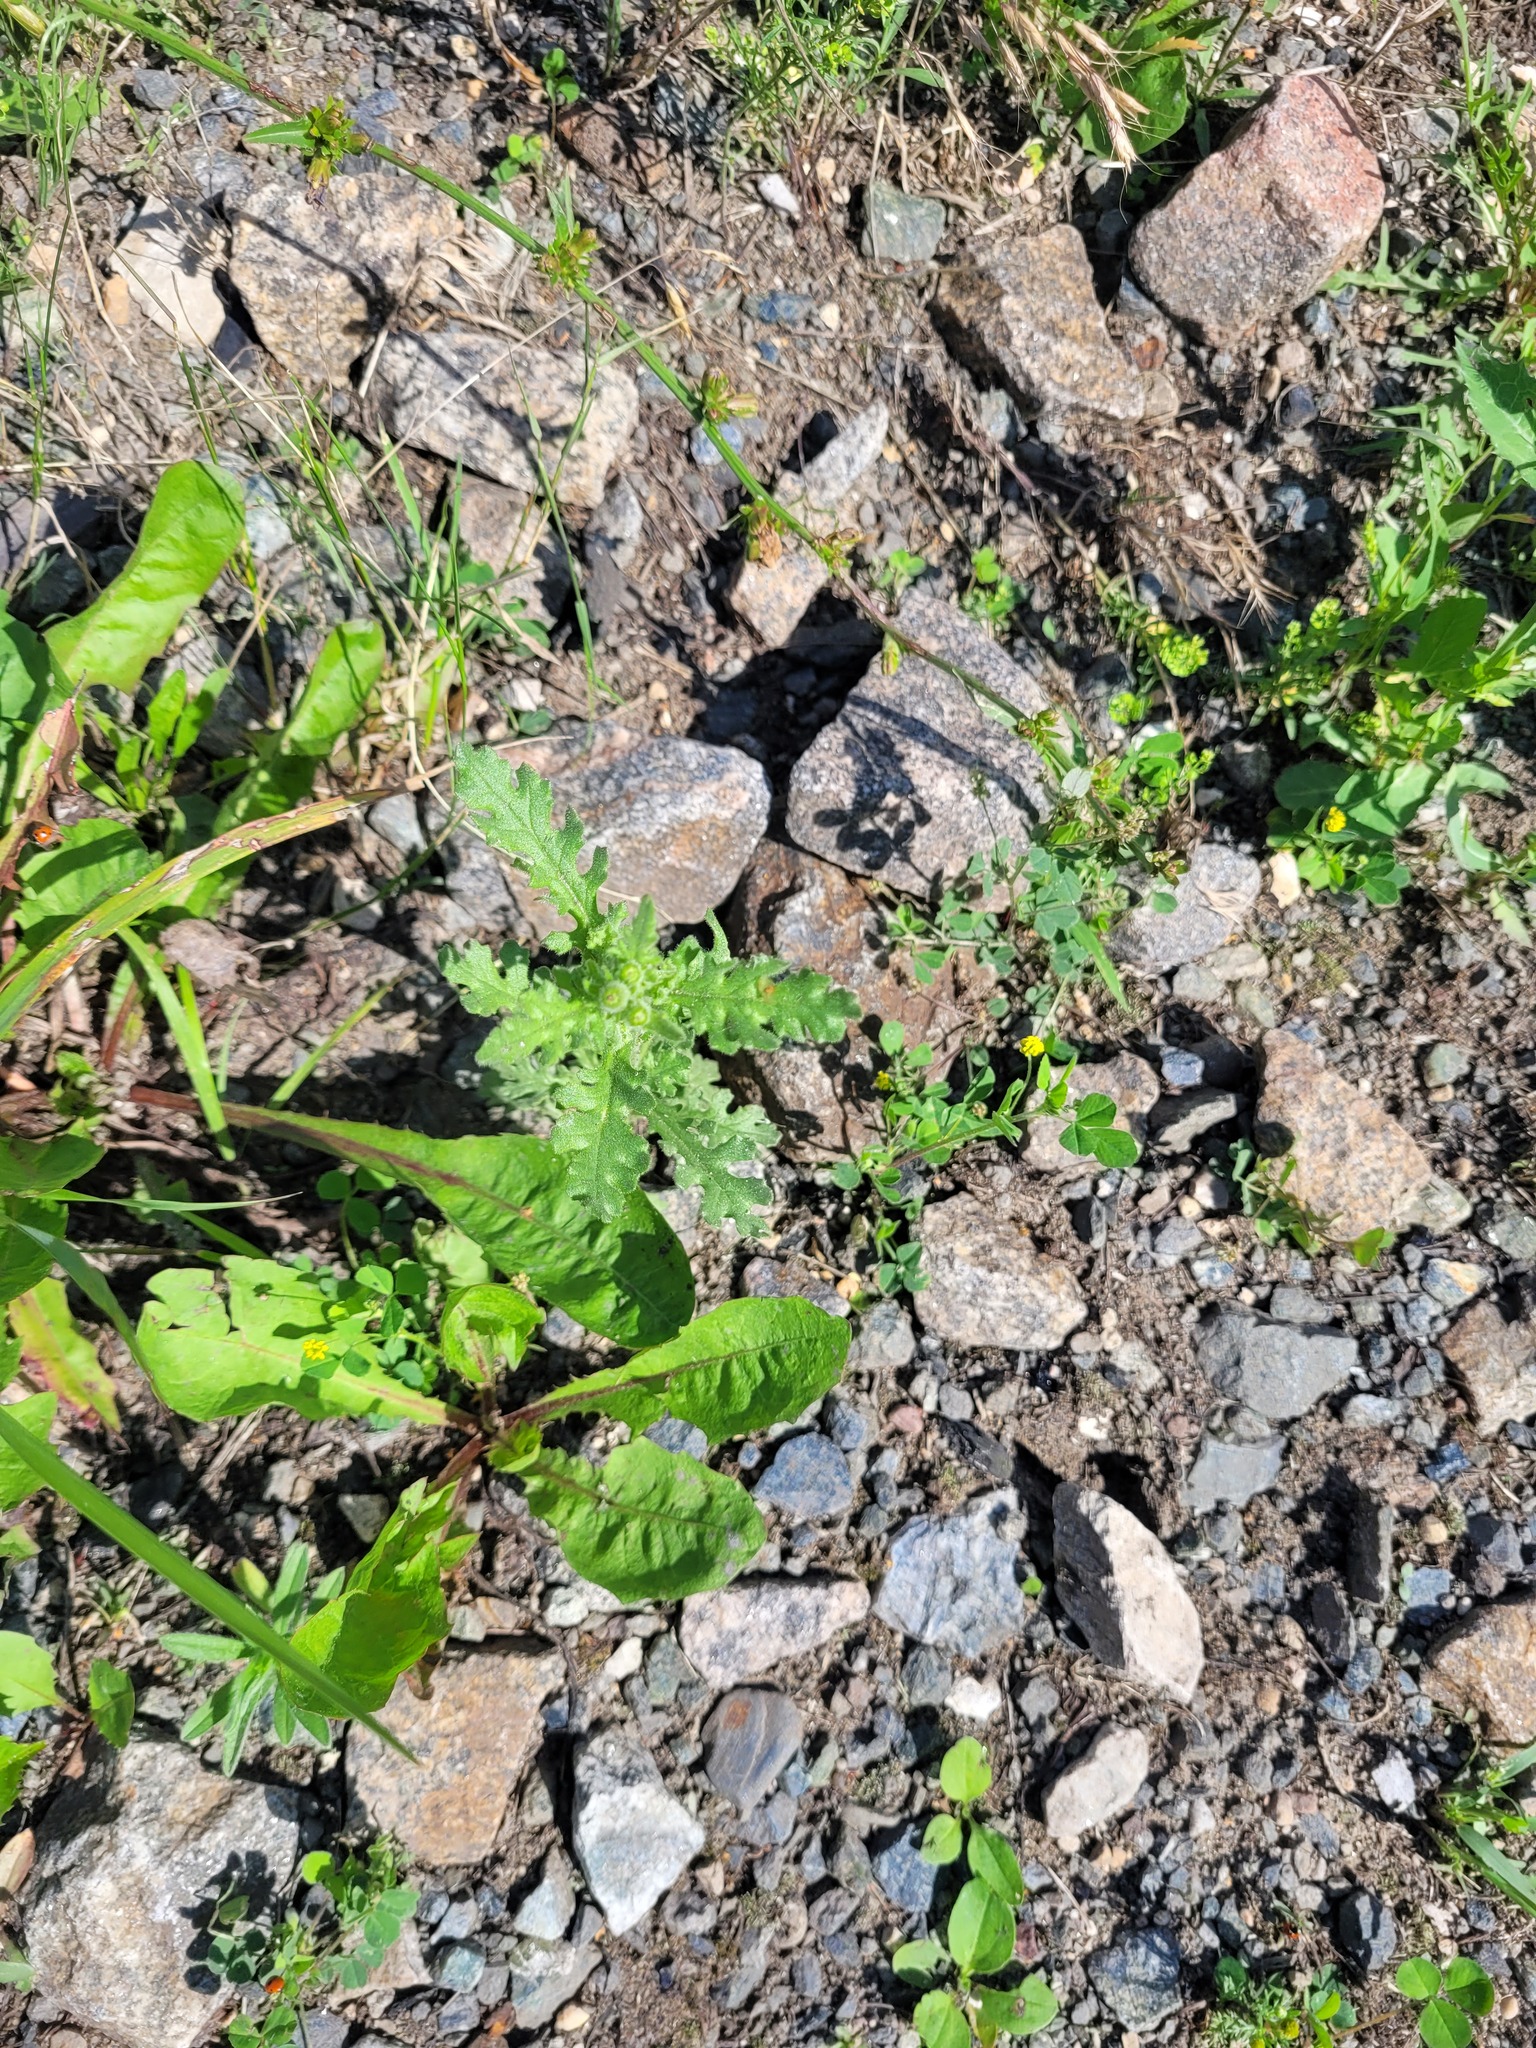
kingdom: Plantae
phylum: Tracheophyta
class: Magnoliopsida
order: Asterales
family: Asteraceae
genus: Senecio
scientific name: Senecio viscosus
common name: Sticky groundsel
